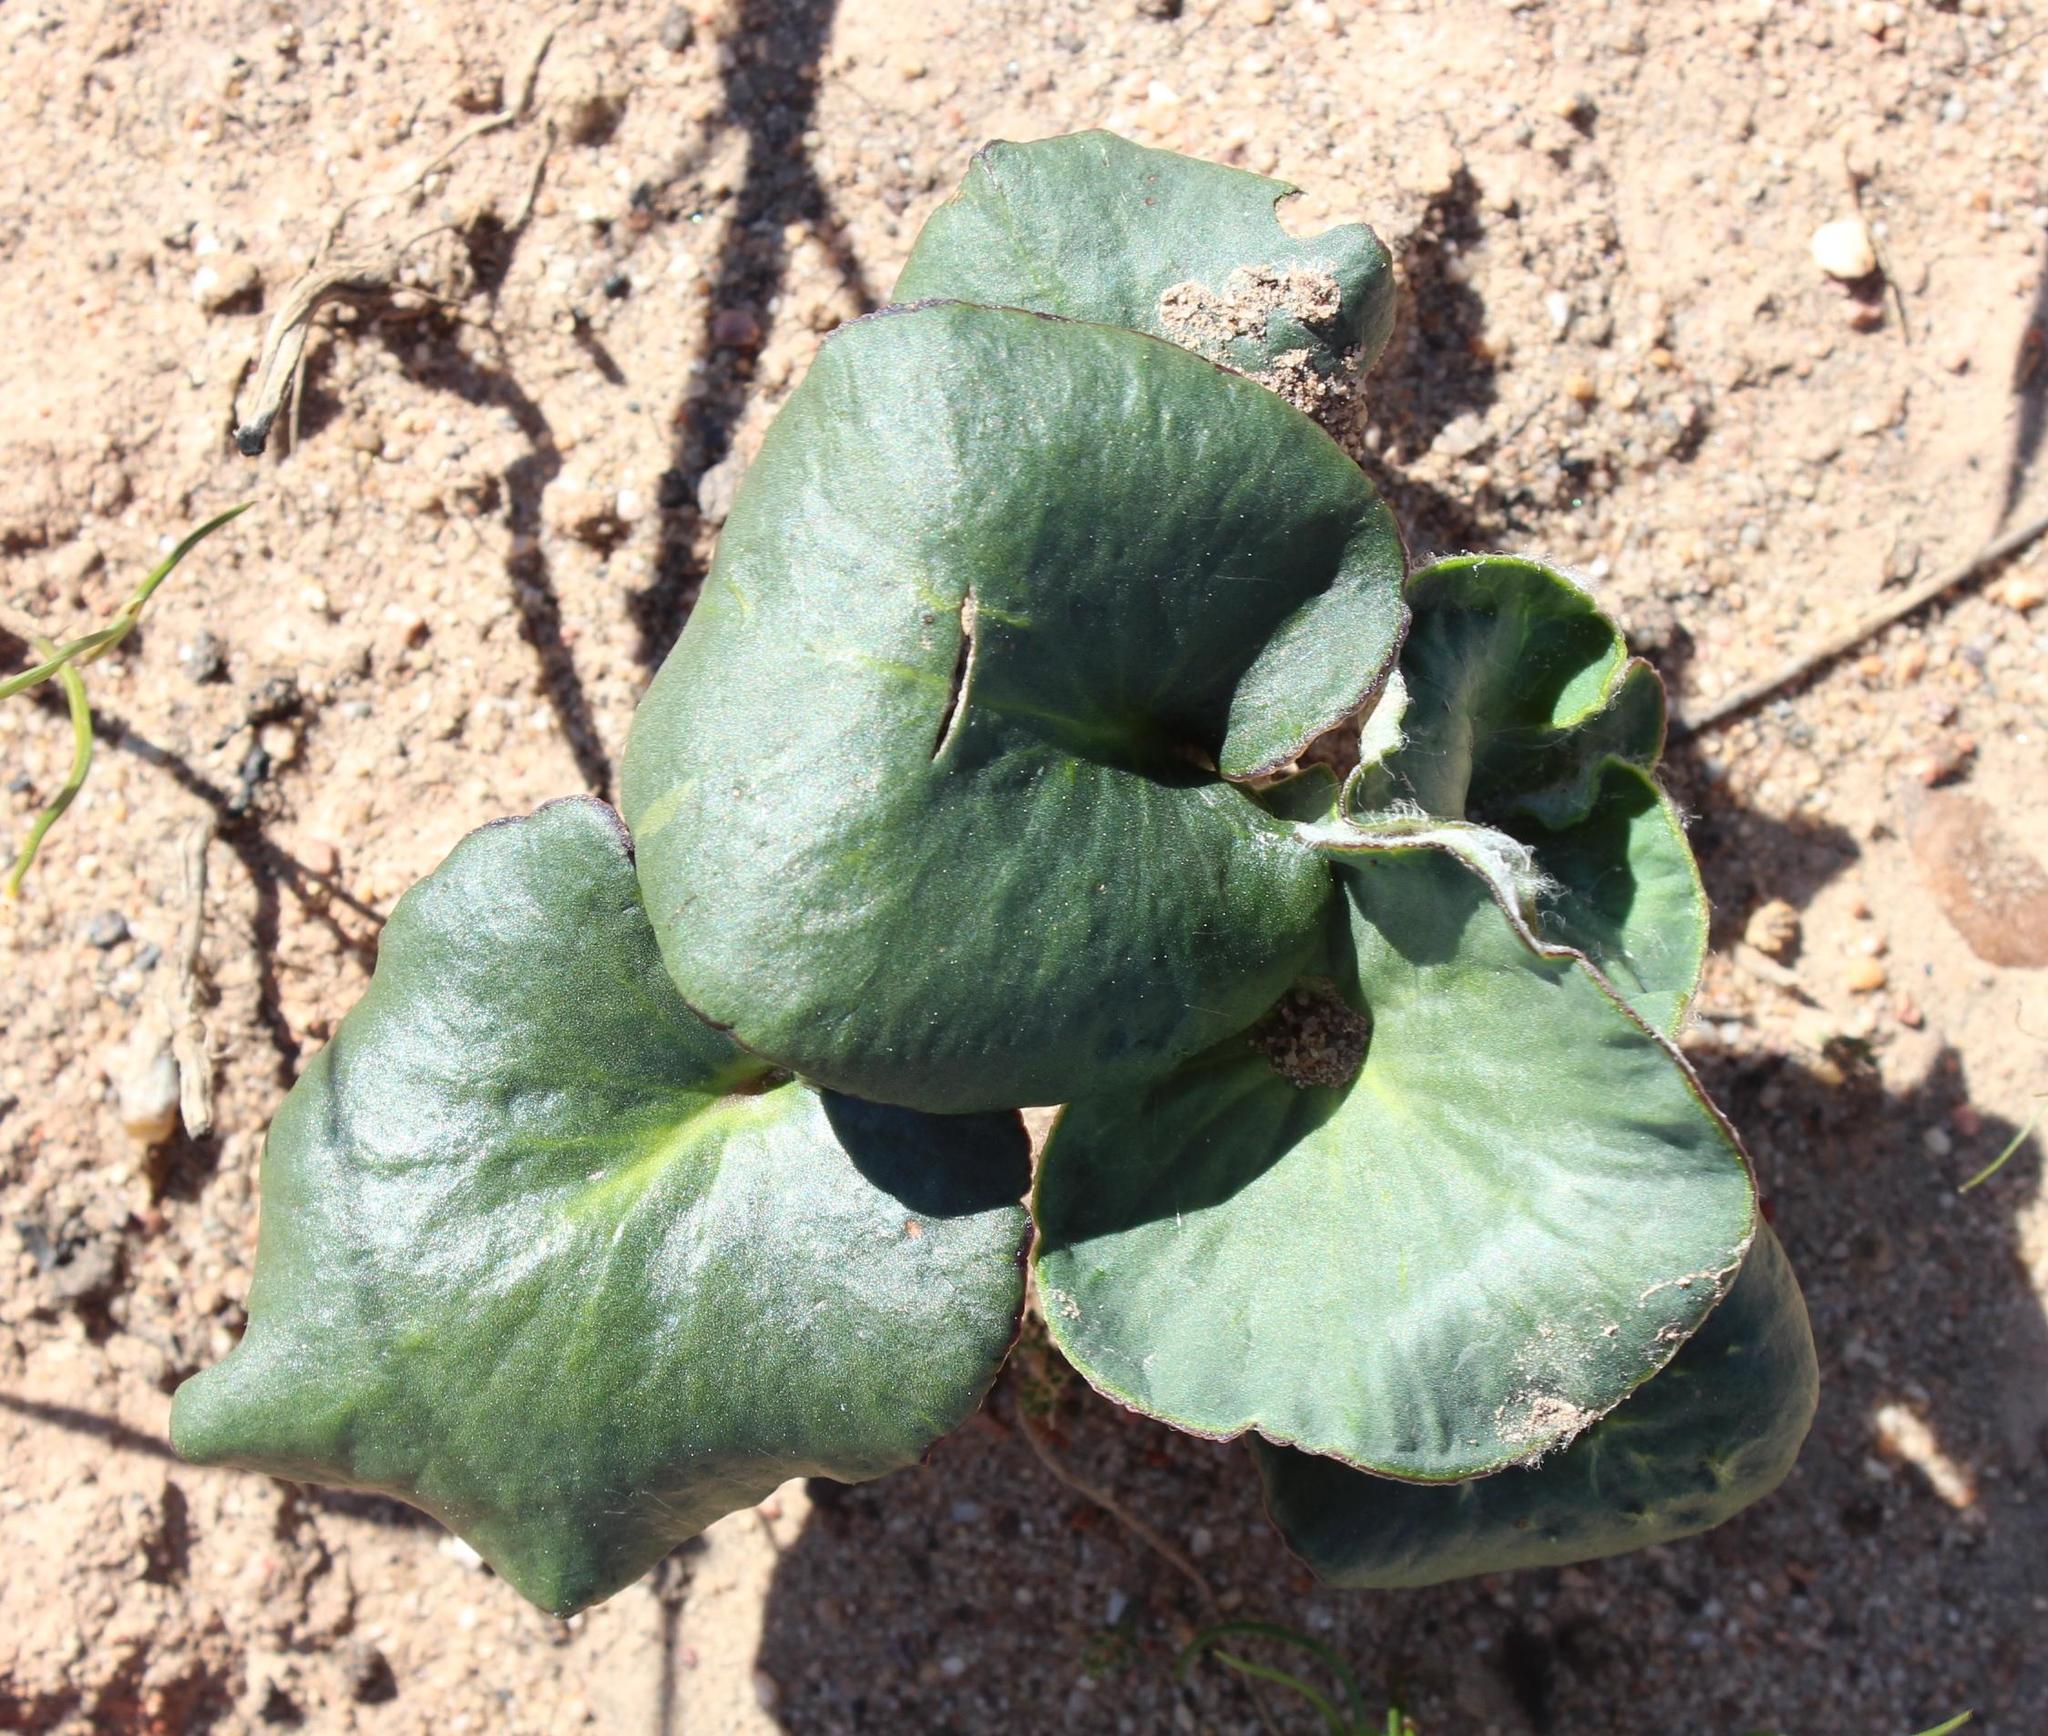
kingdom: Plantae
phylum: Tracheophyta
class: Magnoliopsida
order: Geraniales
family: Geraniaceae
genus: Pelargonium
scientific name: Pelargonium asarifolium
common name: Asarum-leaf pelargonium
